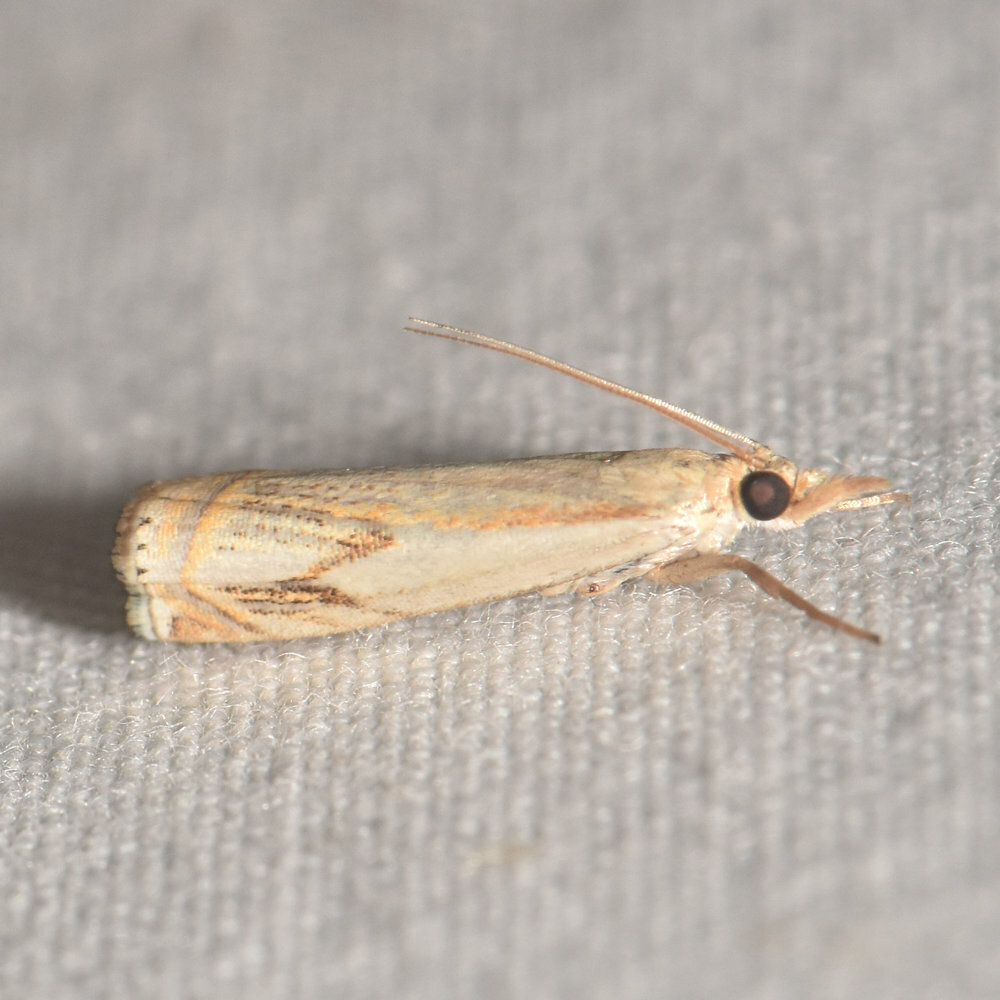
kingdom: Animalia
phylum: Arthropoda
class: Insecta
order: Lepidoptera
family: Crambidae
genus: Crambus
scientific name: Crambus agitatellus
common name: Double-banded grass-veneer
